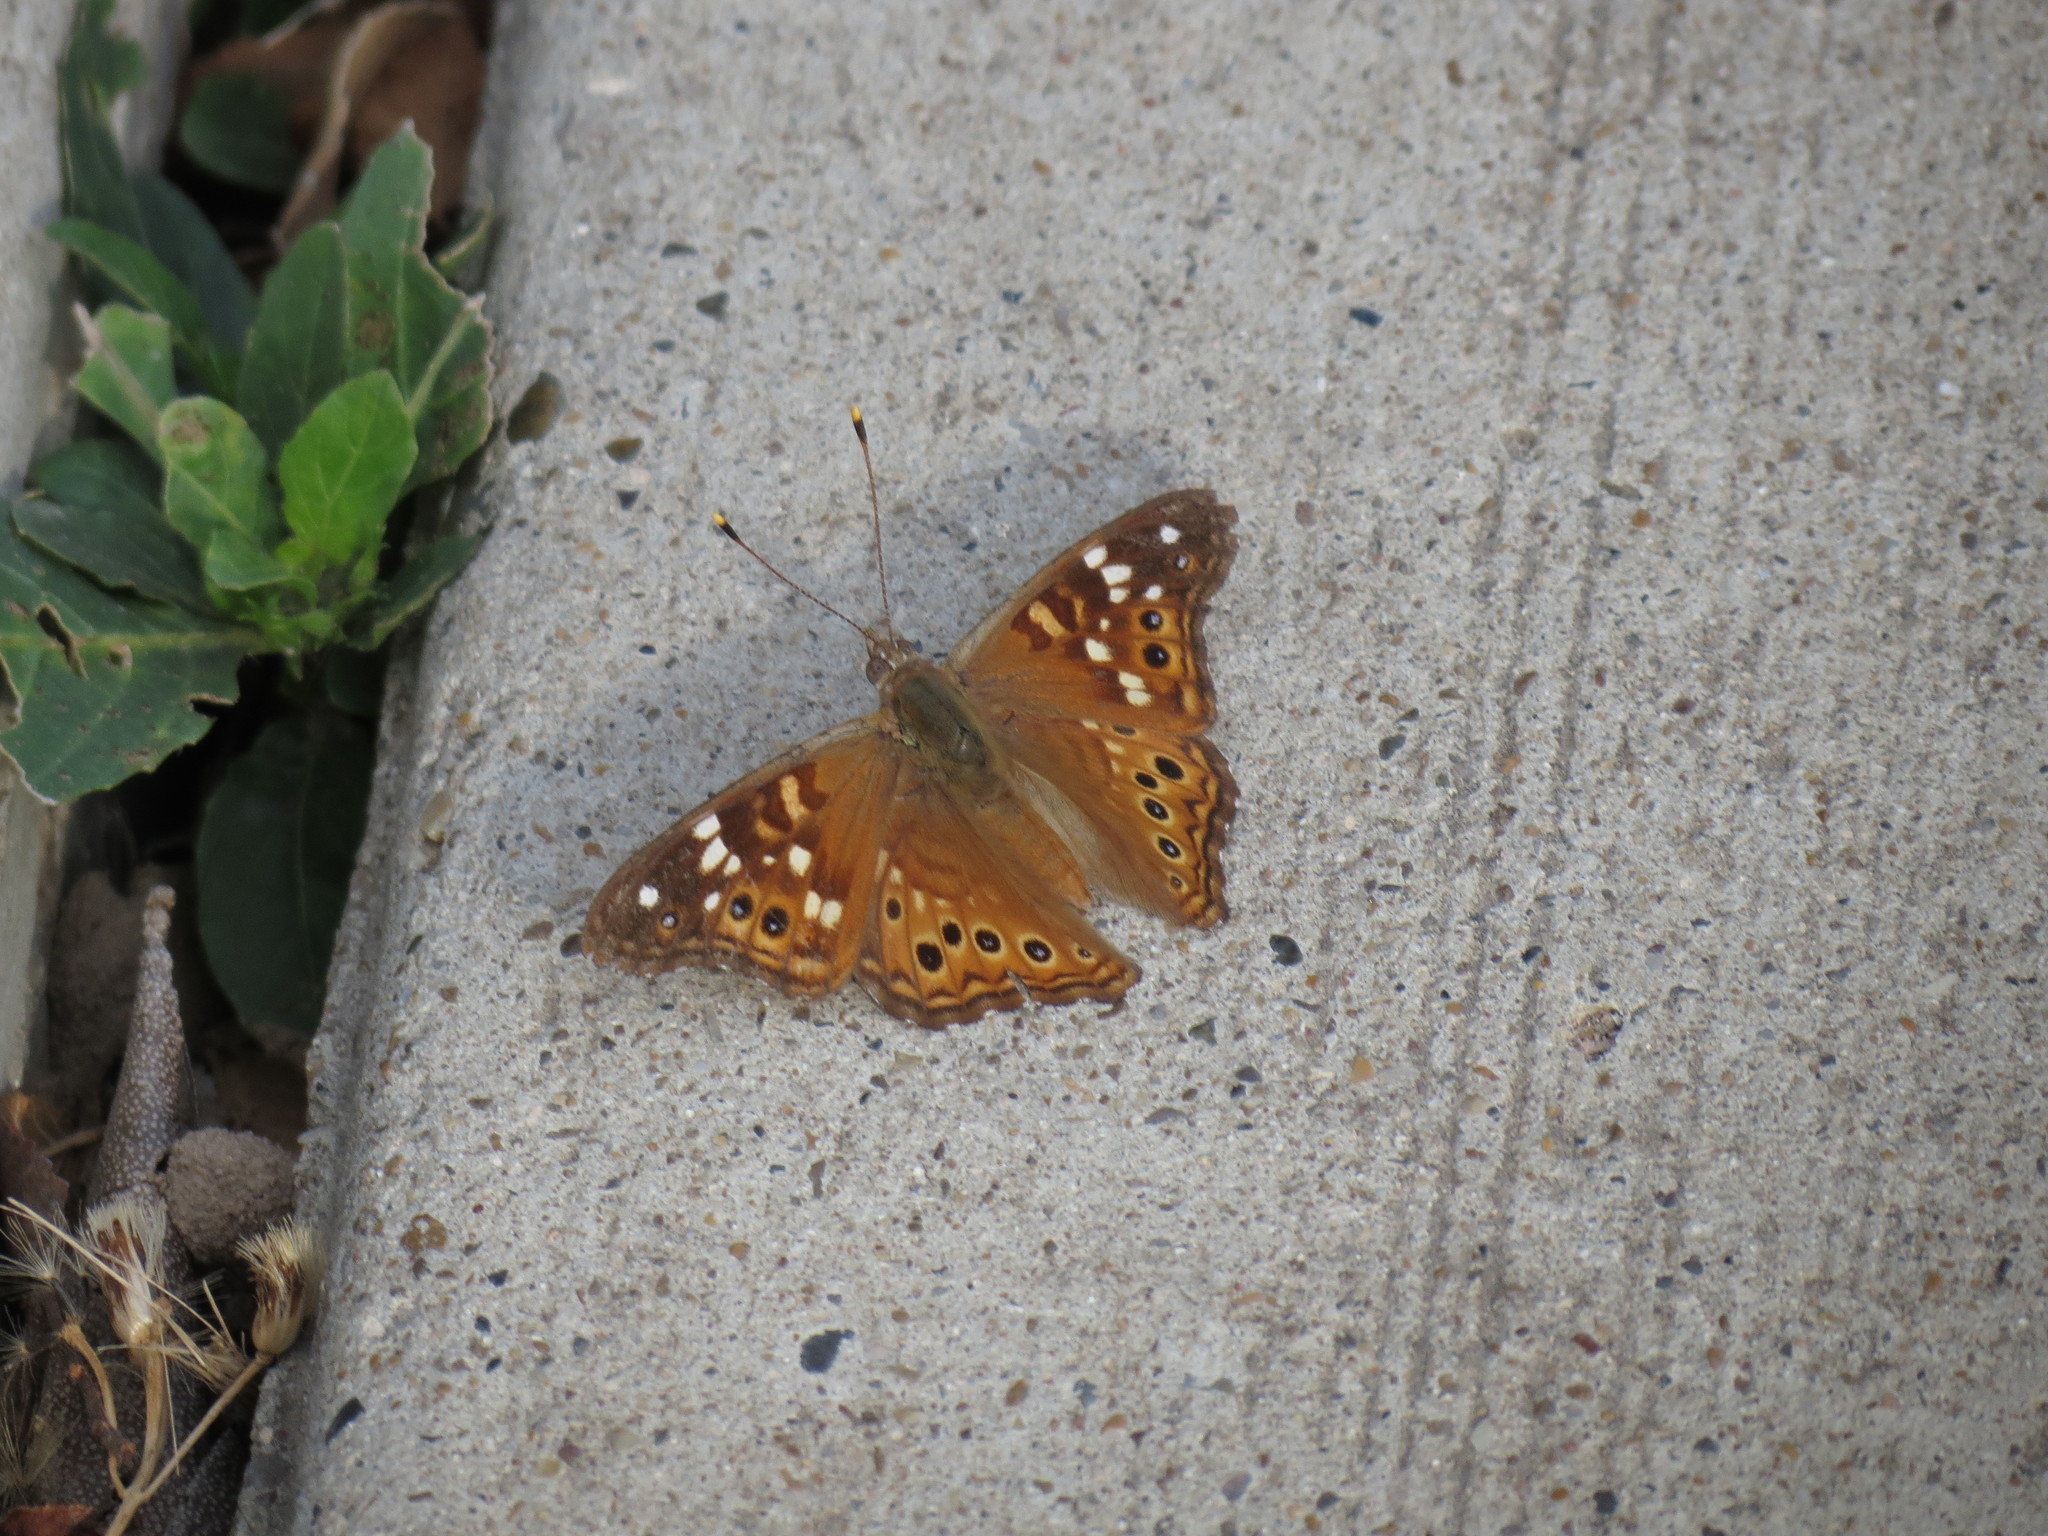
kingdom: Animalia
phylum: Arthropoda
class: Insecta
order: Lepidoptera
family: Nymphalidae
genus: Asterocampa
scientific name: Asterocampa leilia
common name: Empress leilia
